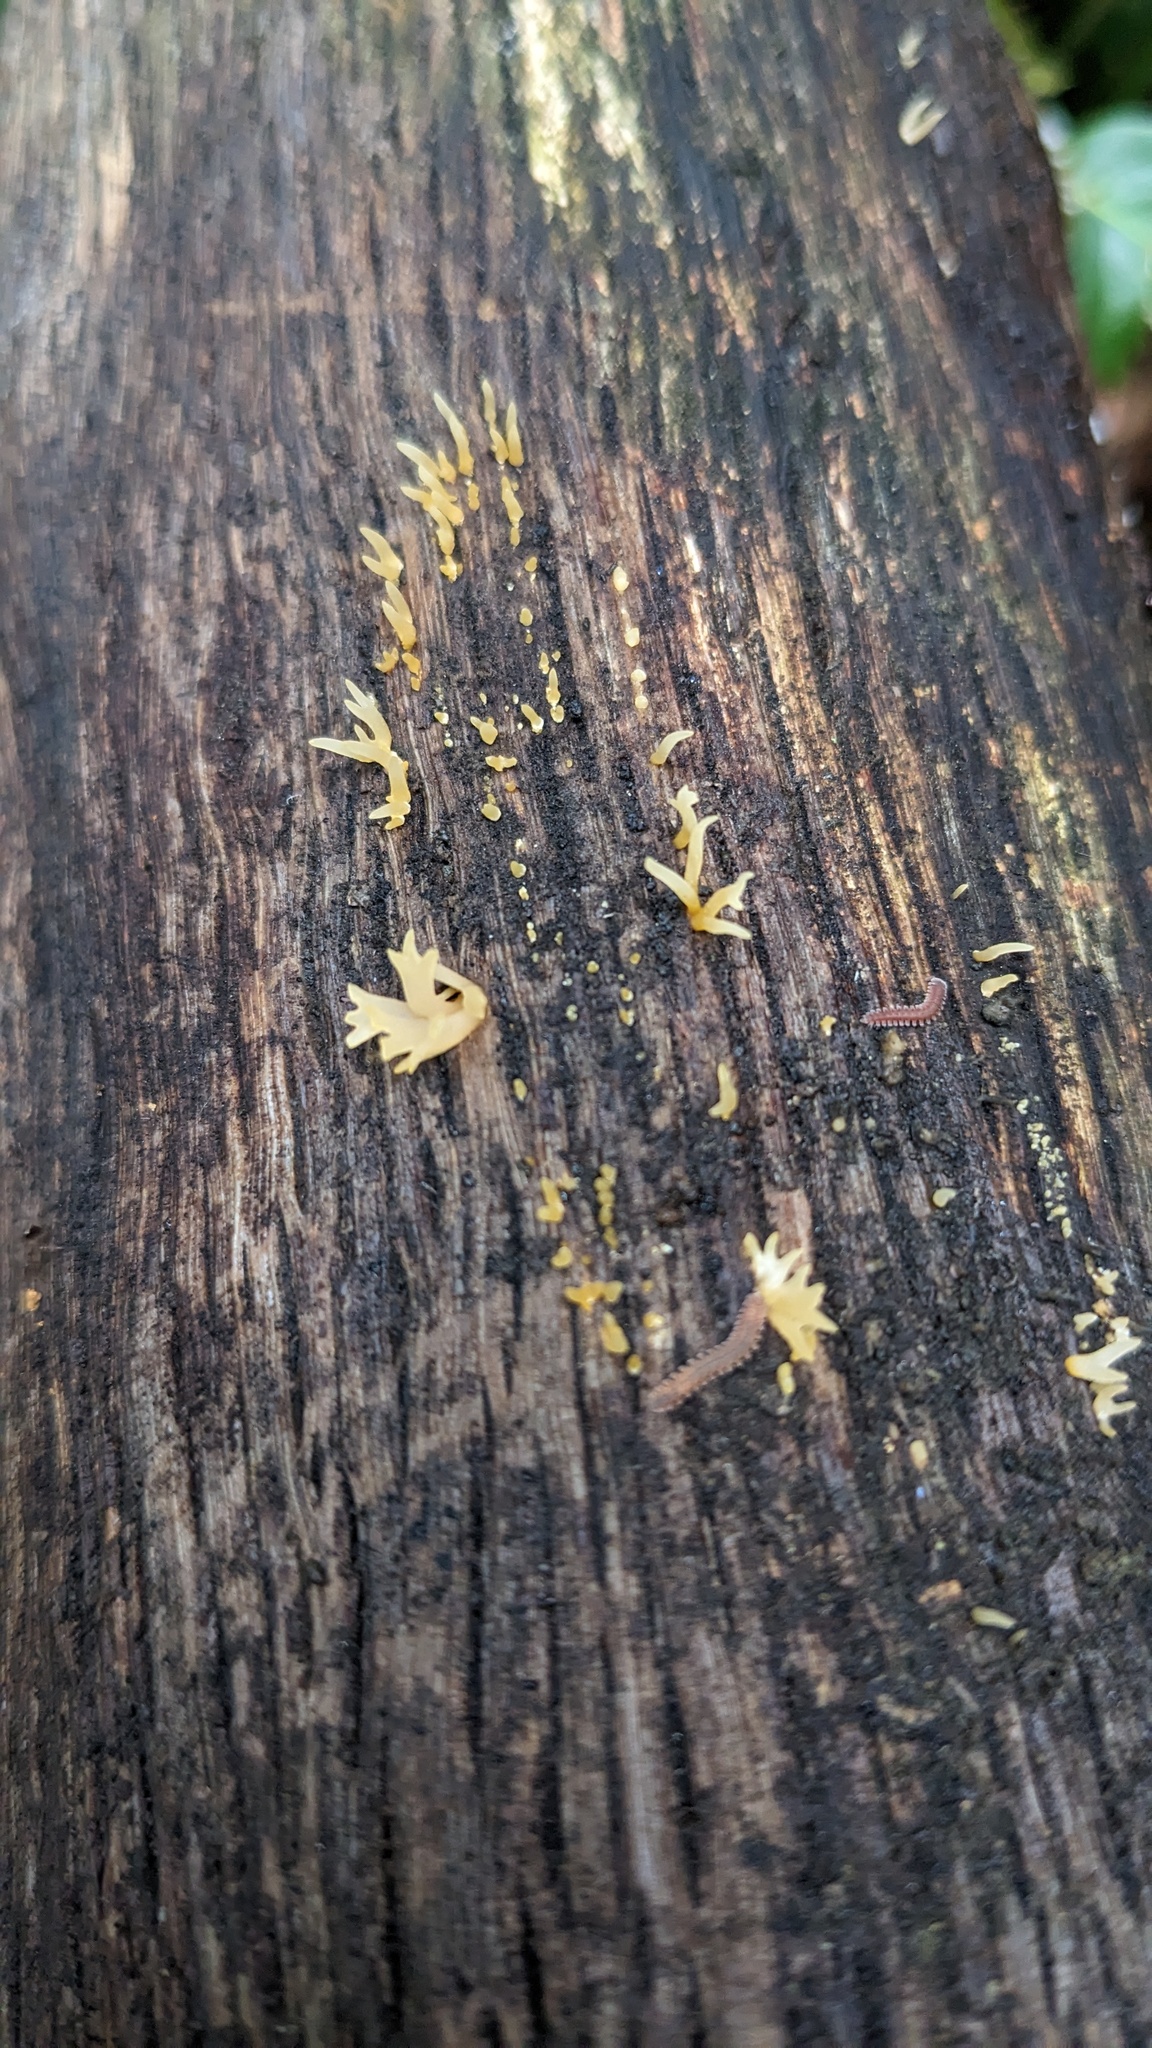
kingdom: Fungi
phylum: Basidiomycota
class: Dacrymycetes
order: Dacrymycetales
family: Dacrymycetaceae
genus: Calocera
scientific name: Calocera cornea
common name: Small stagshorn
